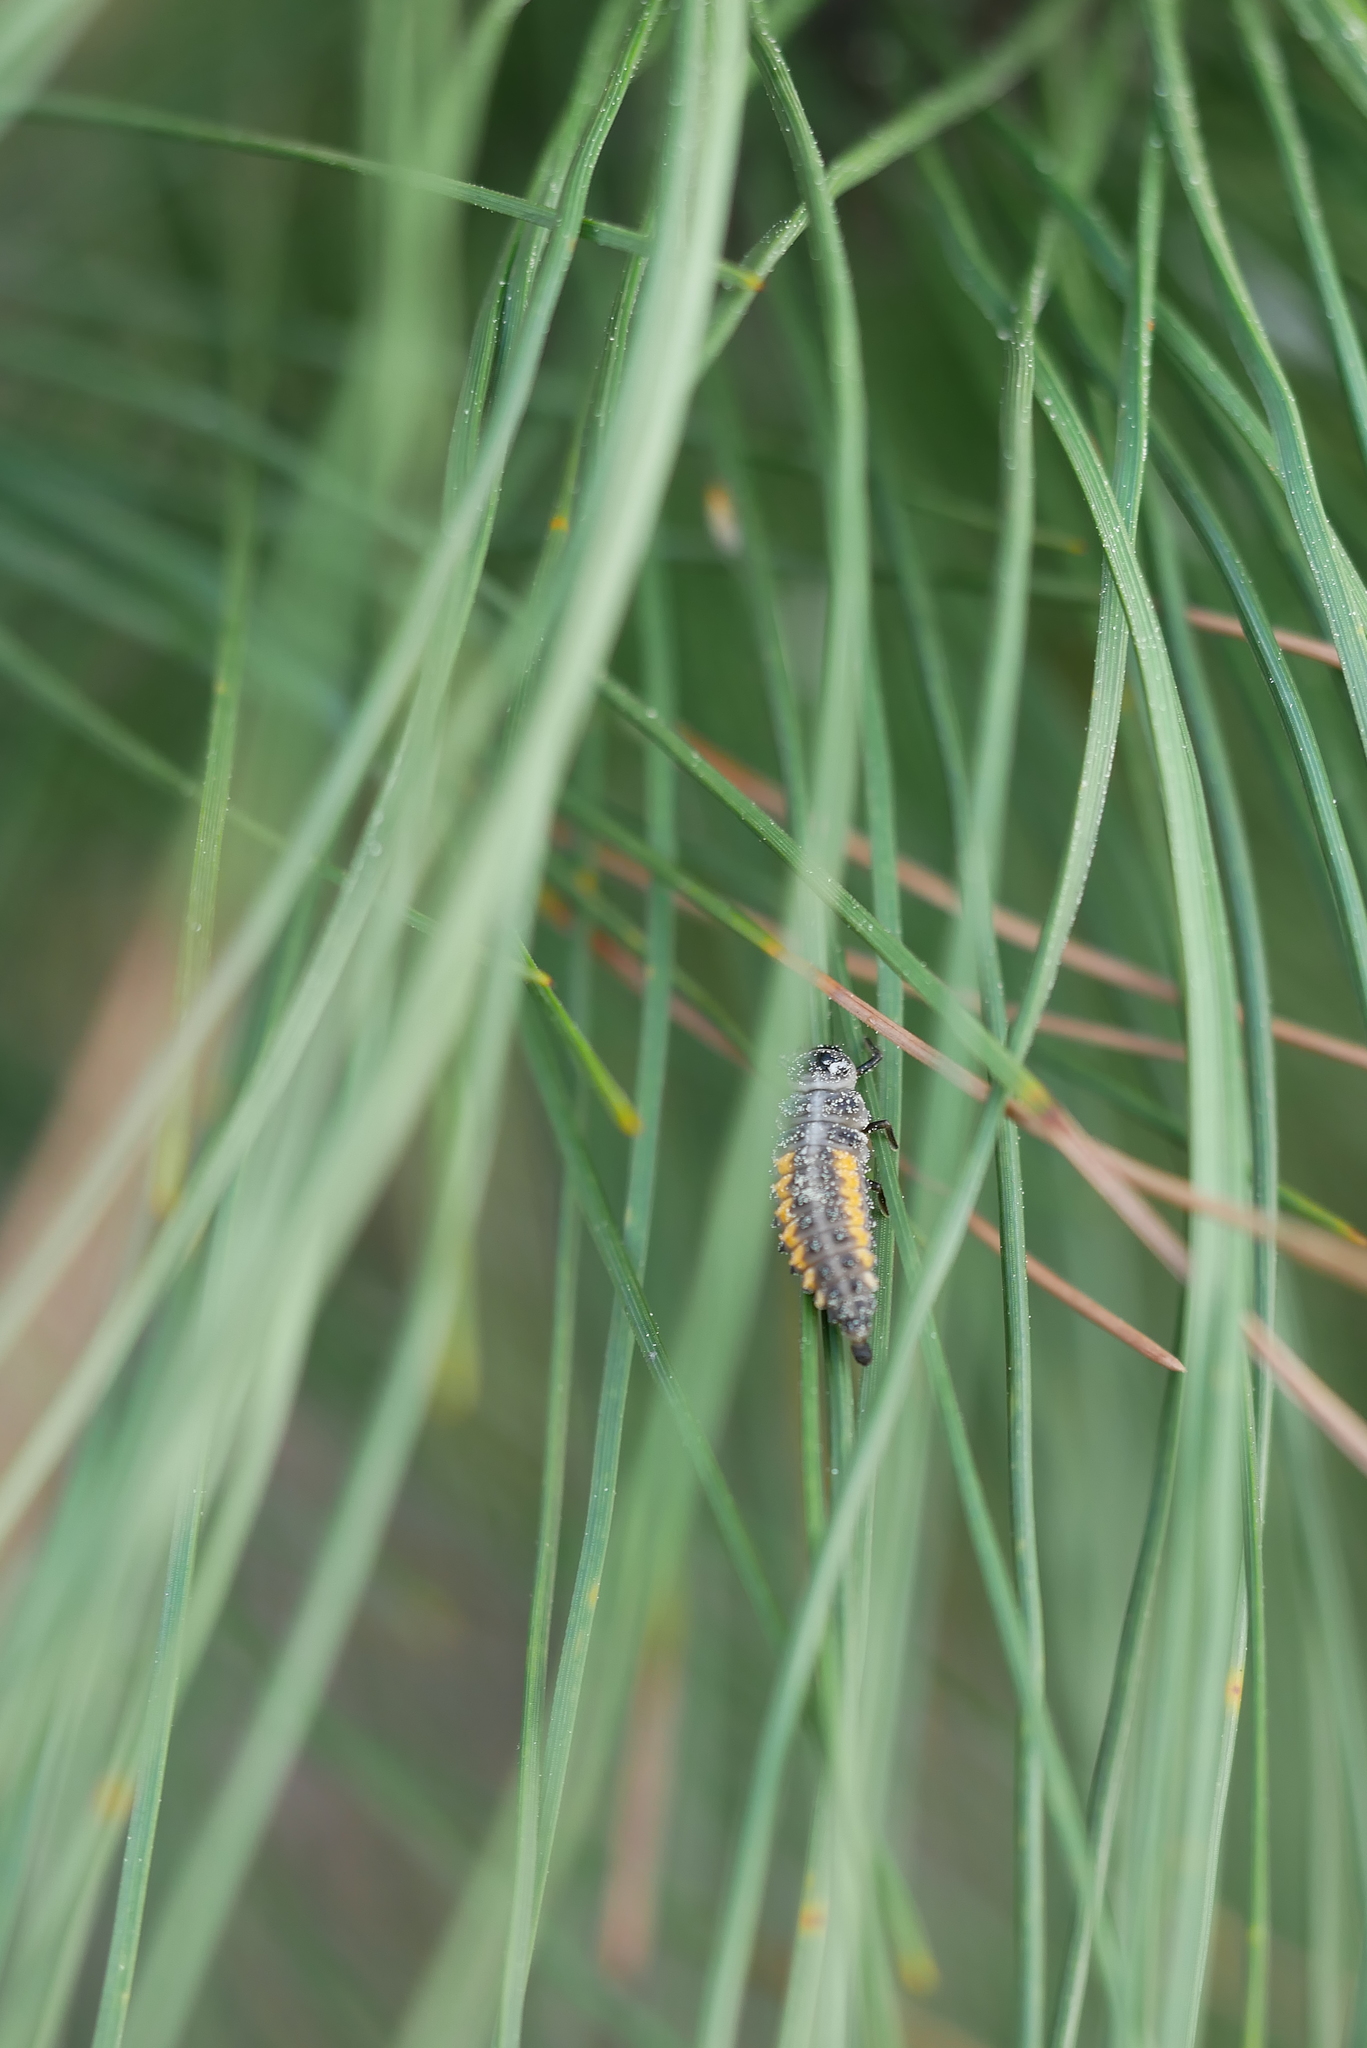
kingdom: Animalia
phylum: Arthropoda
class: Insecta
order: Coleoptera
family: Coccinellidae
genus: Harmonia
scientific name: Harmonia yedoensis
